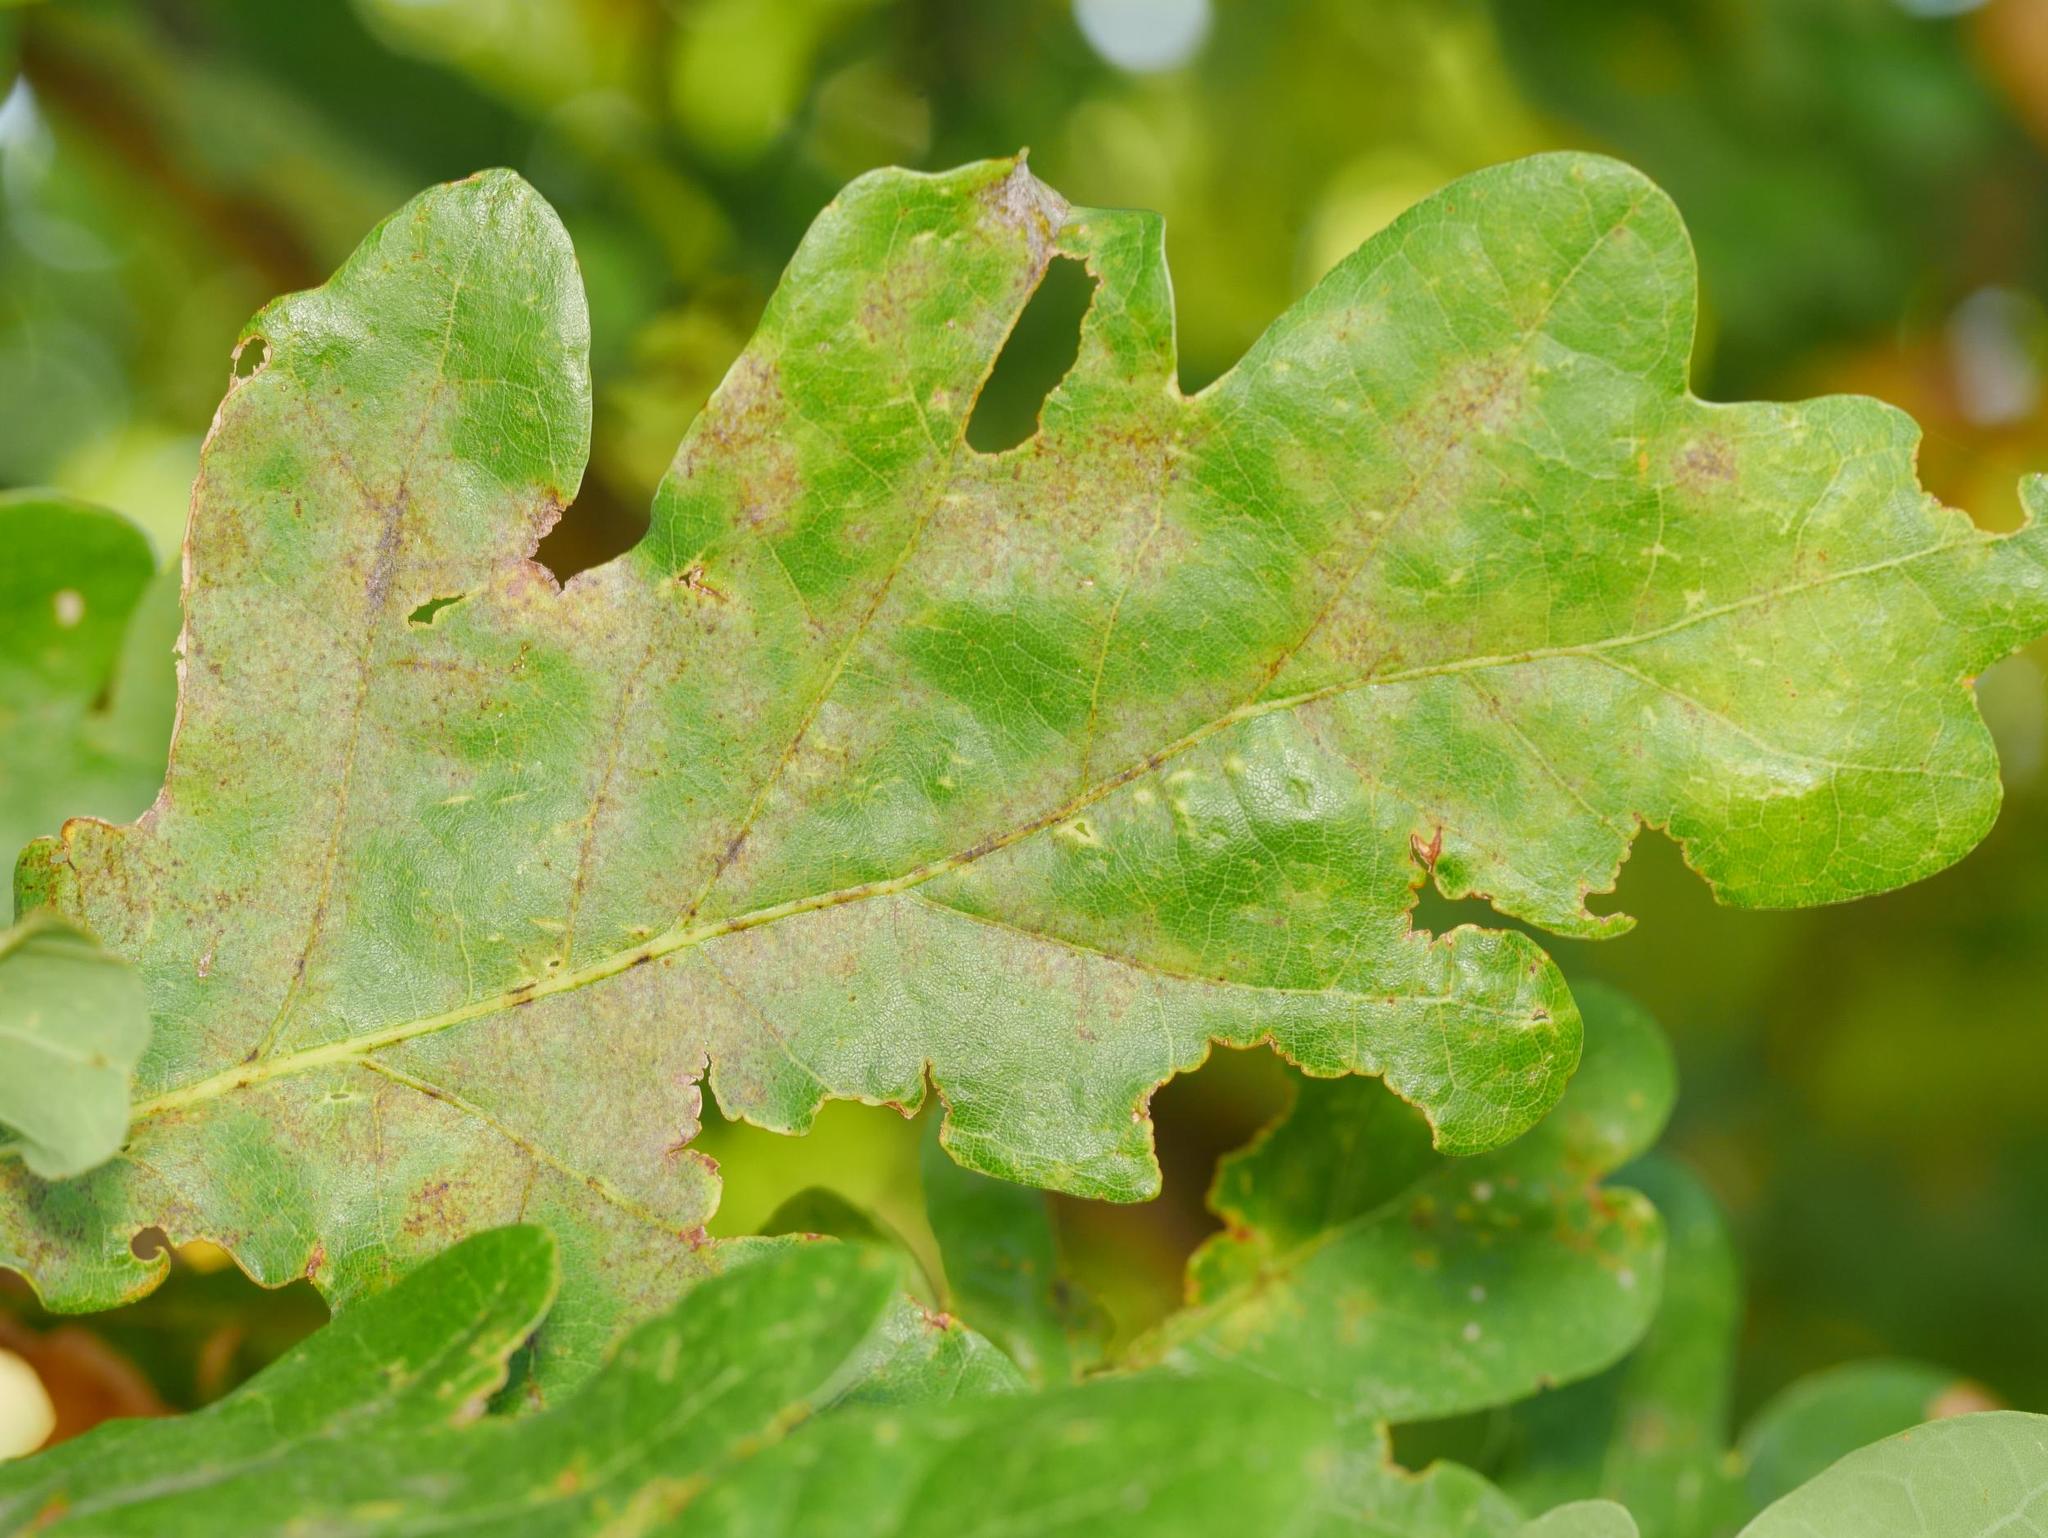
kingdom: Fungi
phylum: Ascomycota
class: Leotiomycetes
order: Helotiales
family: Erysiphaceae
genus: Erysiphe
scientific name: Erysiphe
